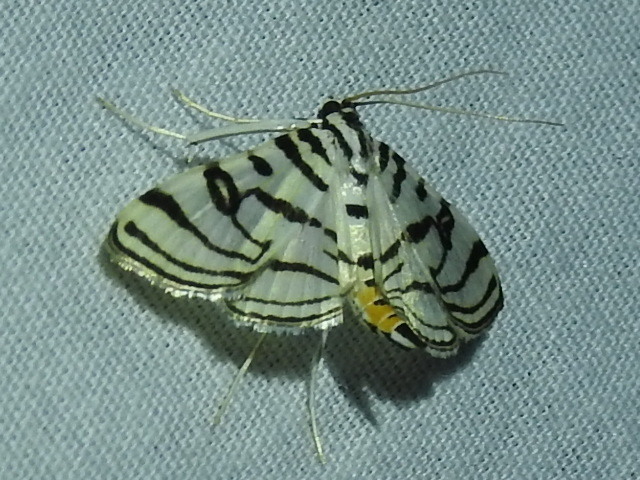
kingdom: Animalia
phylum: Arthropoda
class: Insecta
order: Lepidoptera
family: Crambidae
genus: Conchylodes
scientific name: Conchylodes ovulalis
